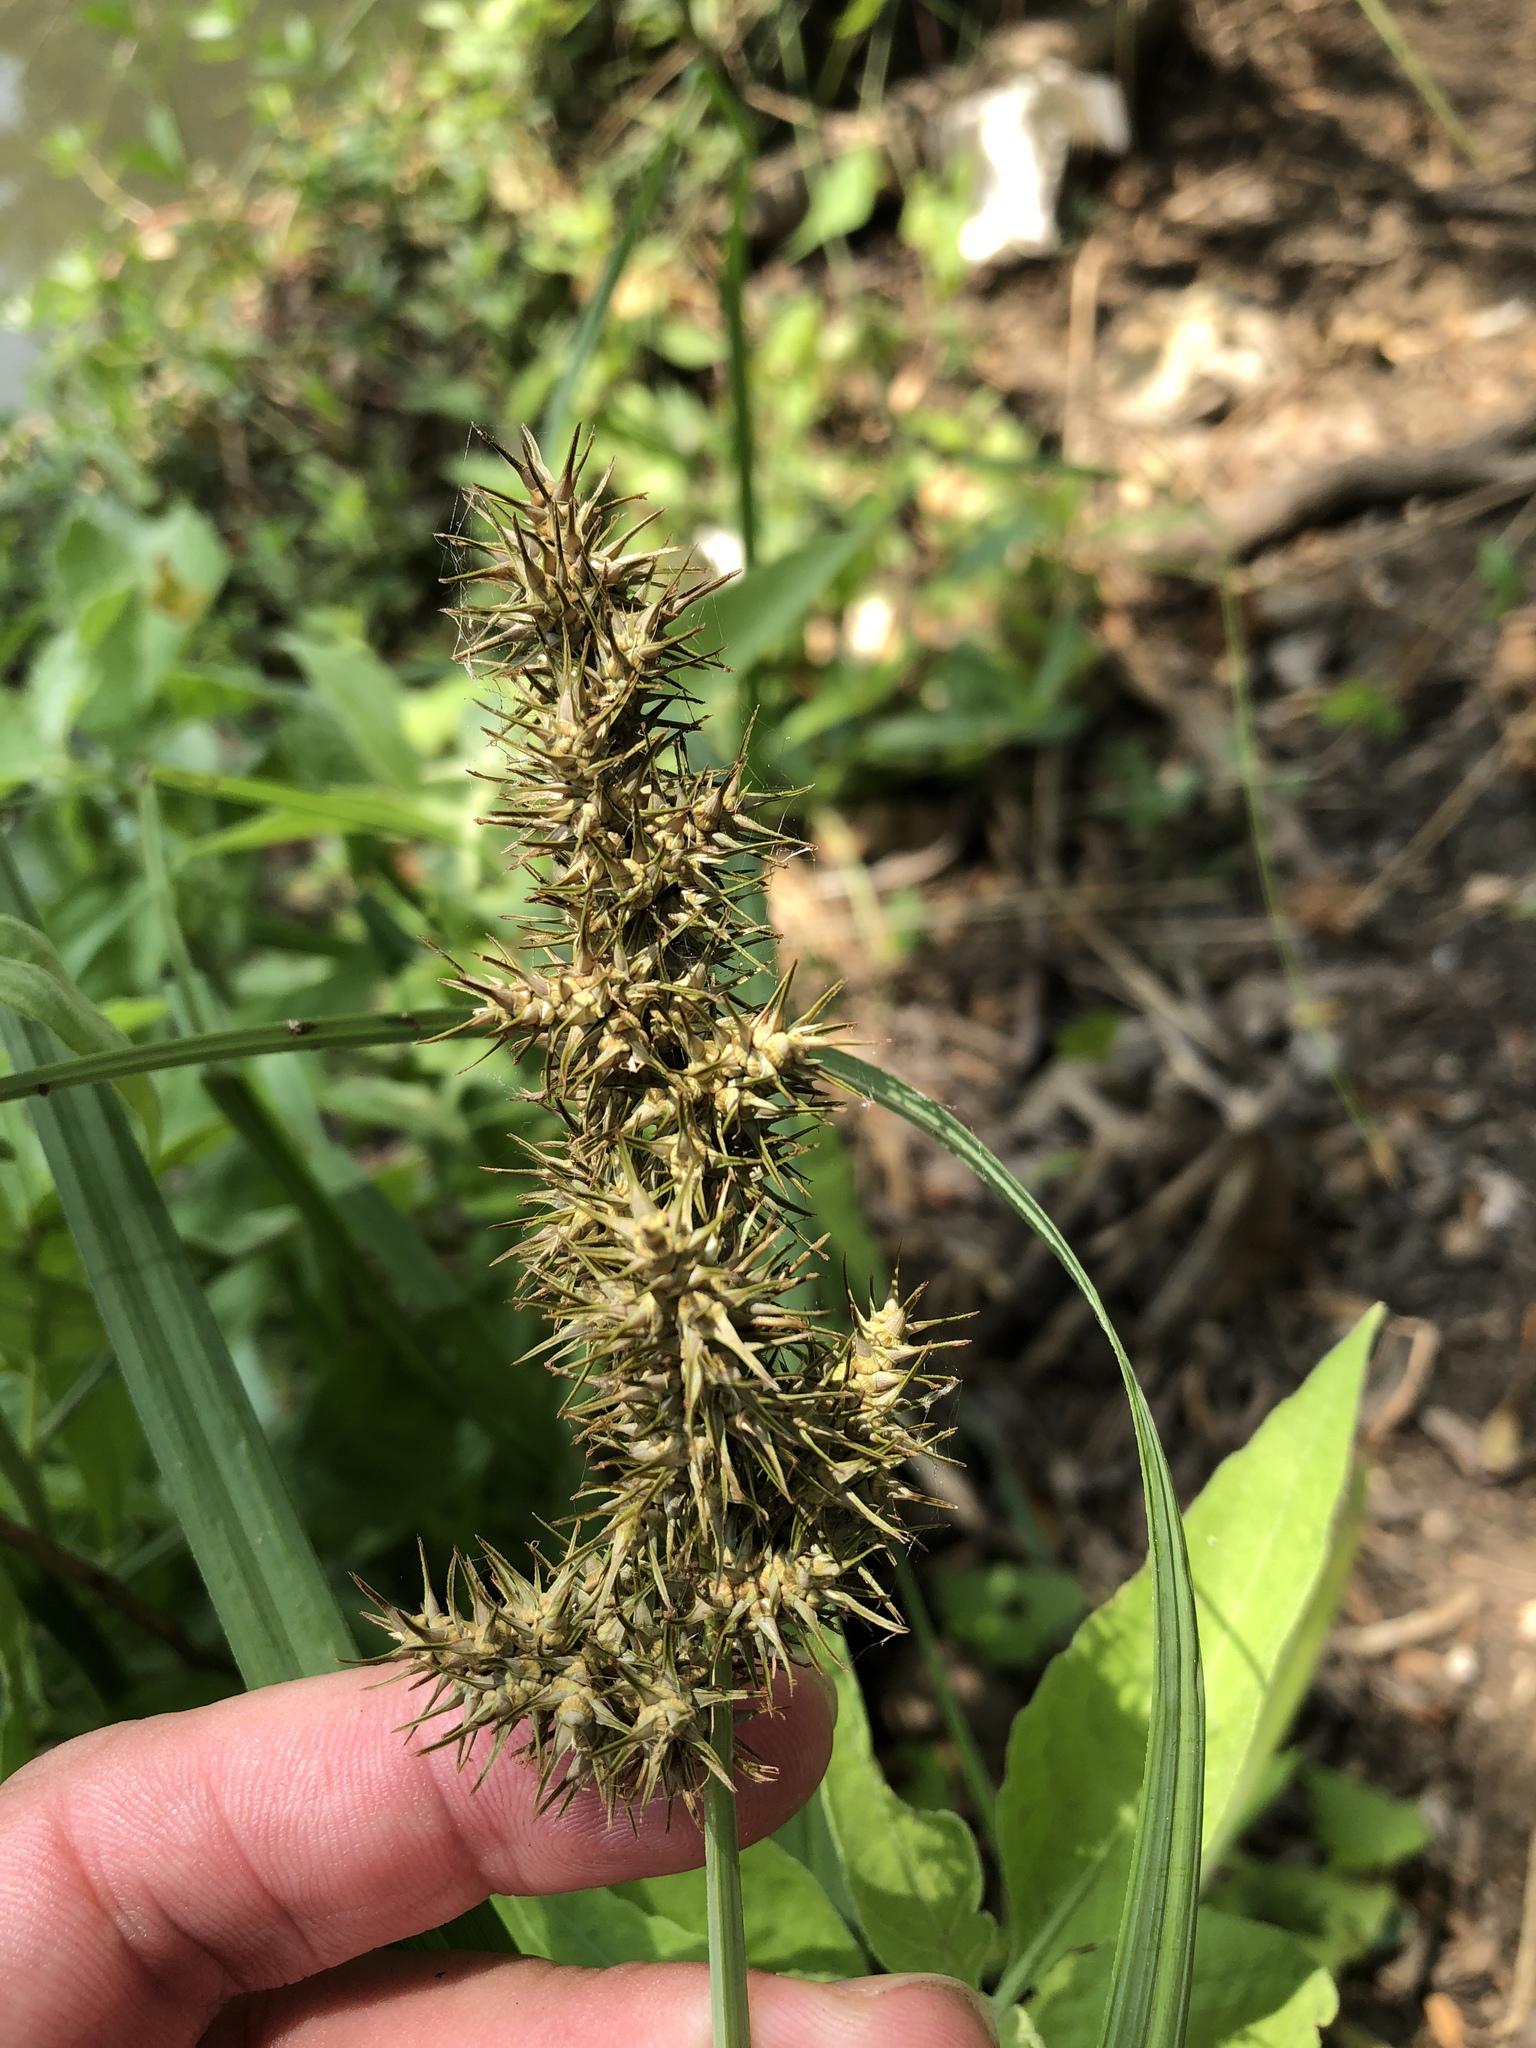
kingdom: Plantae
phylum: Tracheophyta
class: Liliopsida
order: Poales
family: Cyperaceae
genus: Carex
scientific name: Carex crus-corvi
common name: Crow-spur sedge
